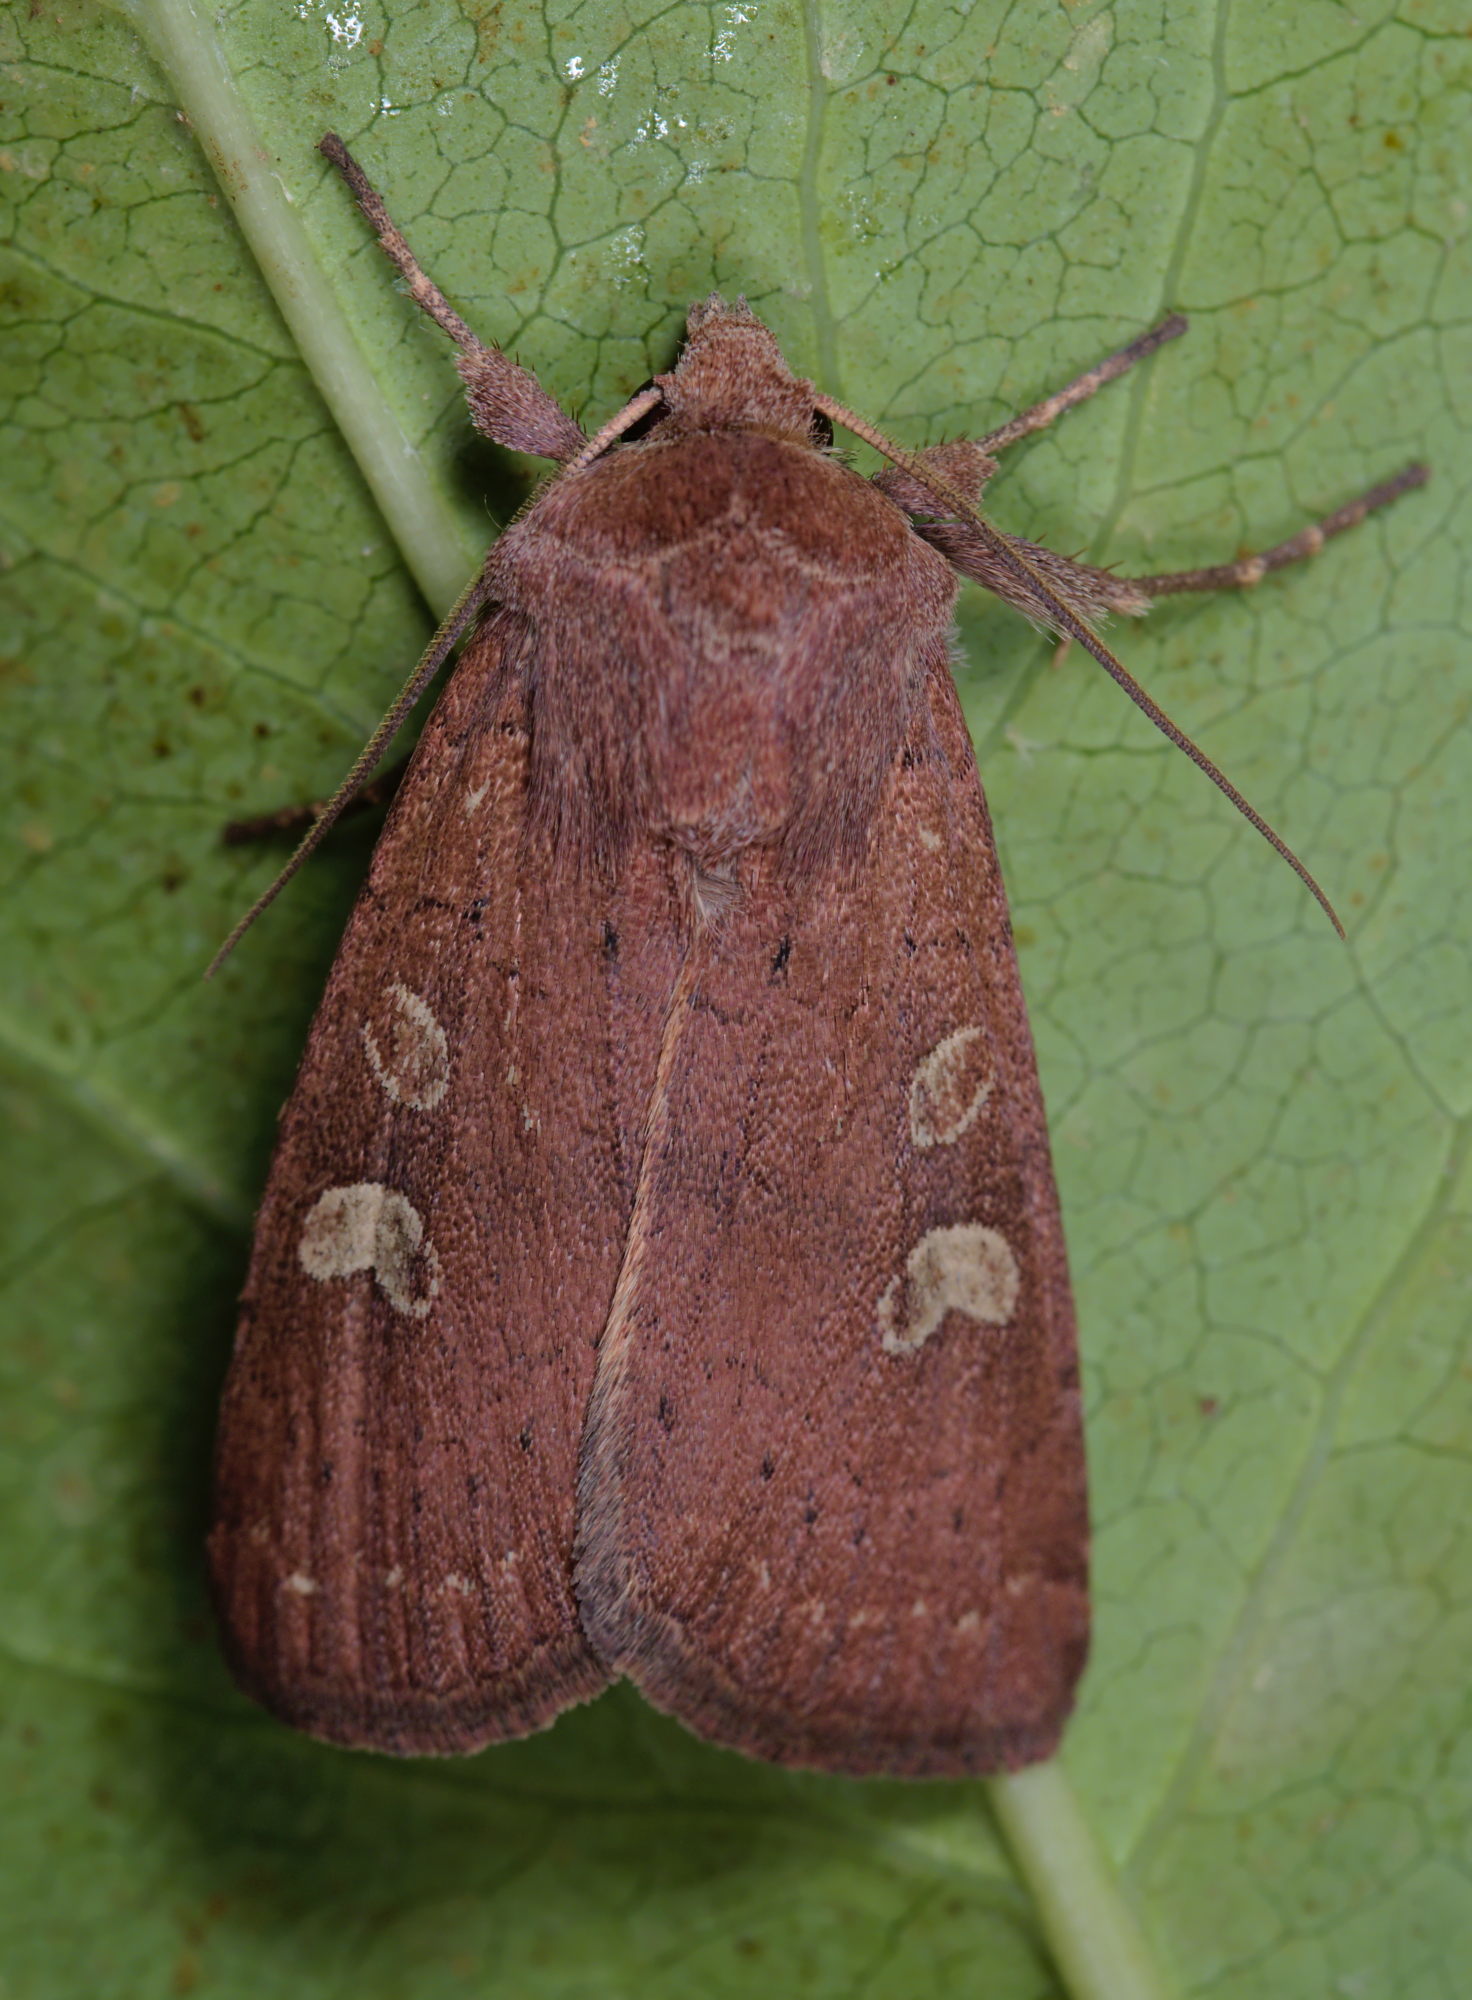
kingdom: Animalia
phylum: Arthropoda
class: Insecta
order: Lepidoptera
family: Noctuidae
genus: Xestia
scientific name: Xestia xanthographa
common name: Square-spot rustic
